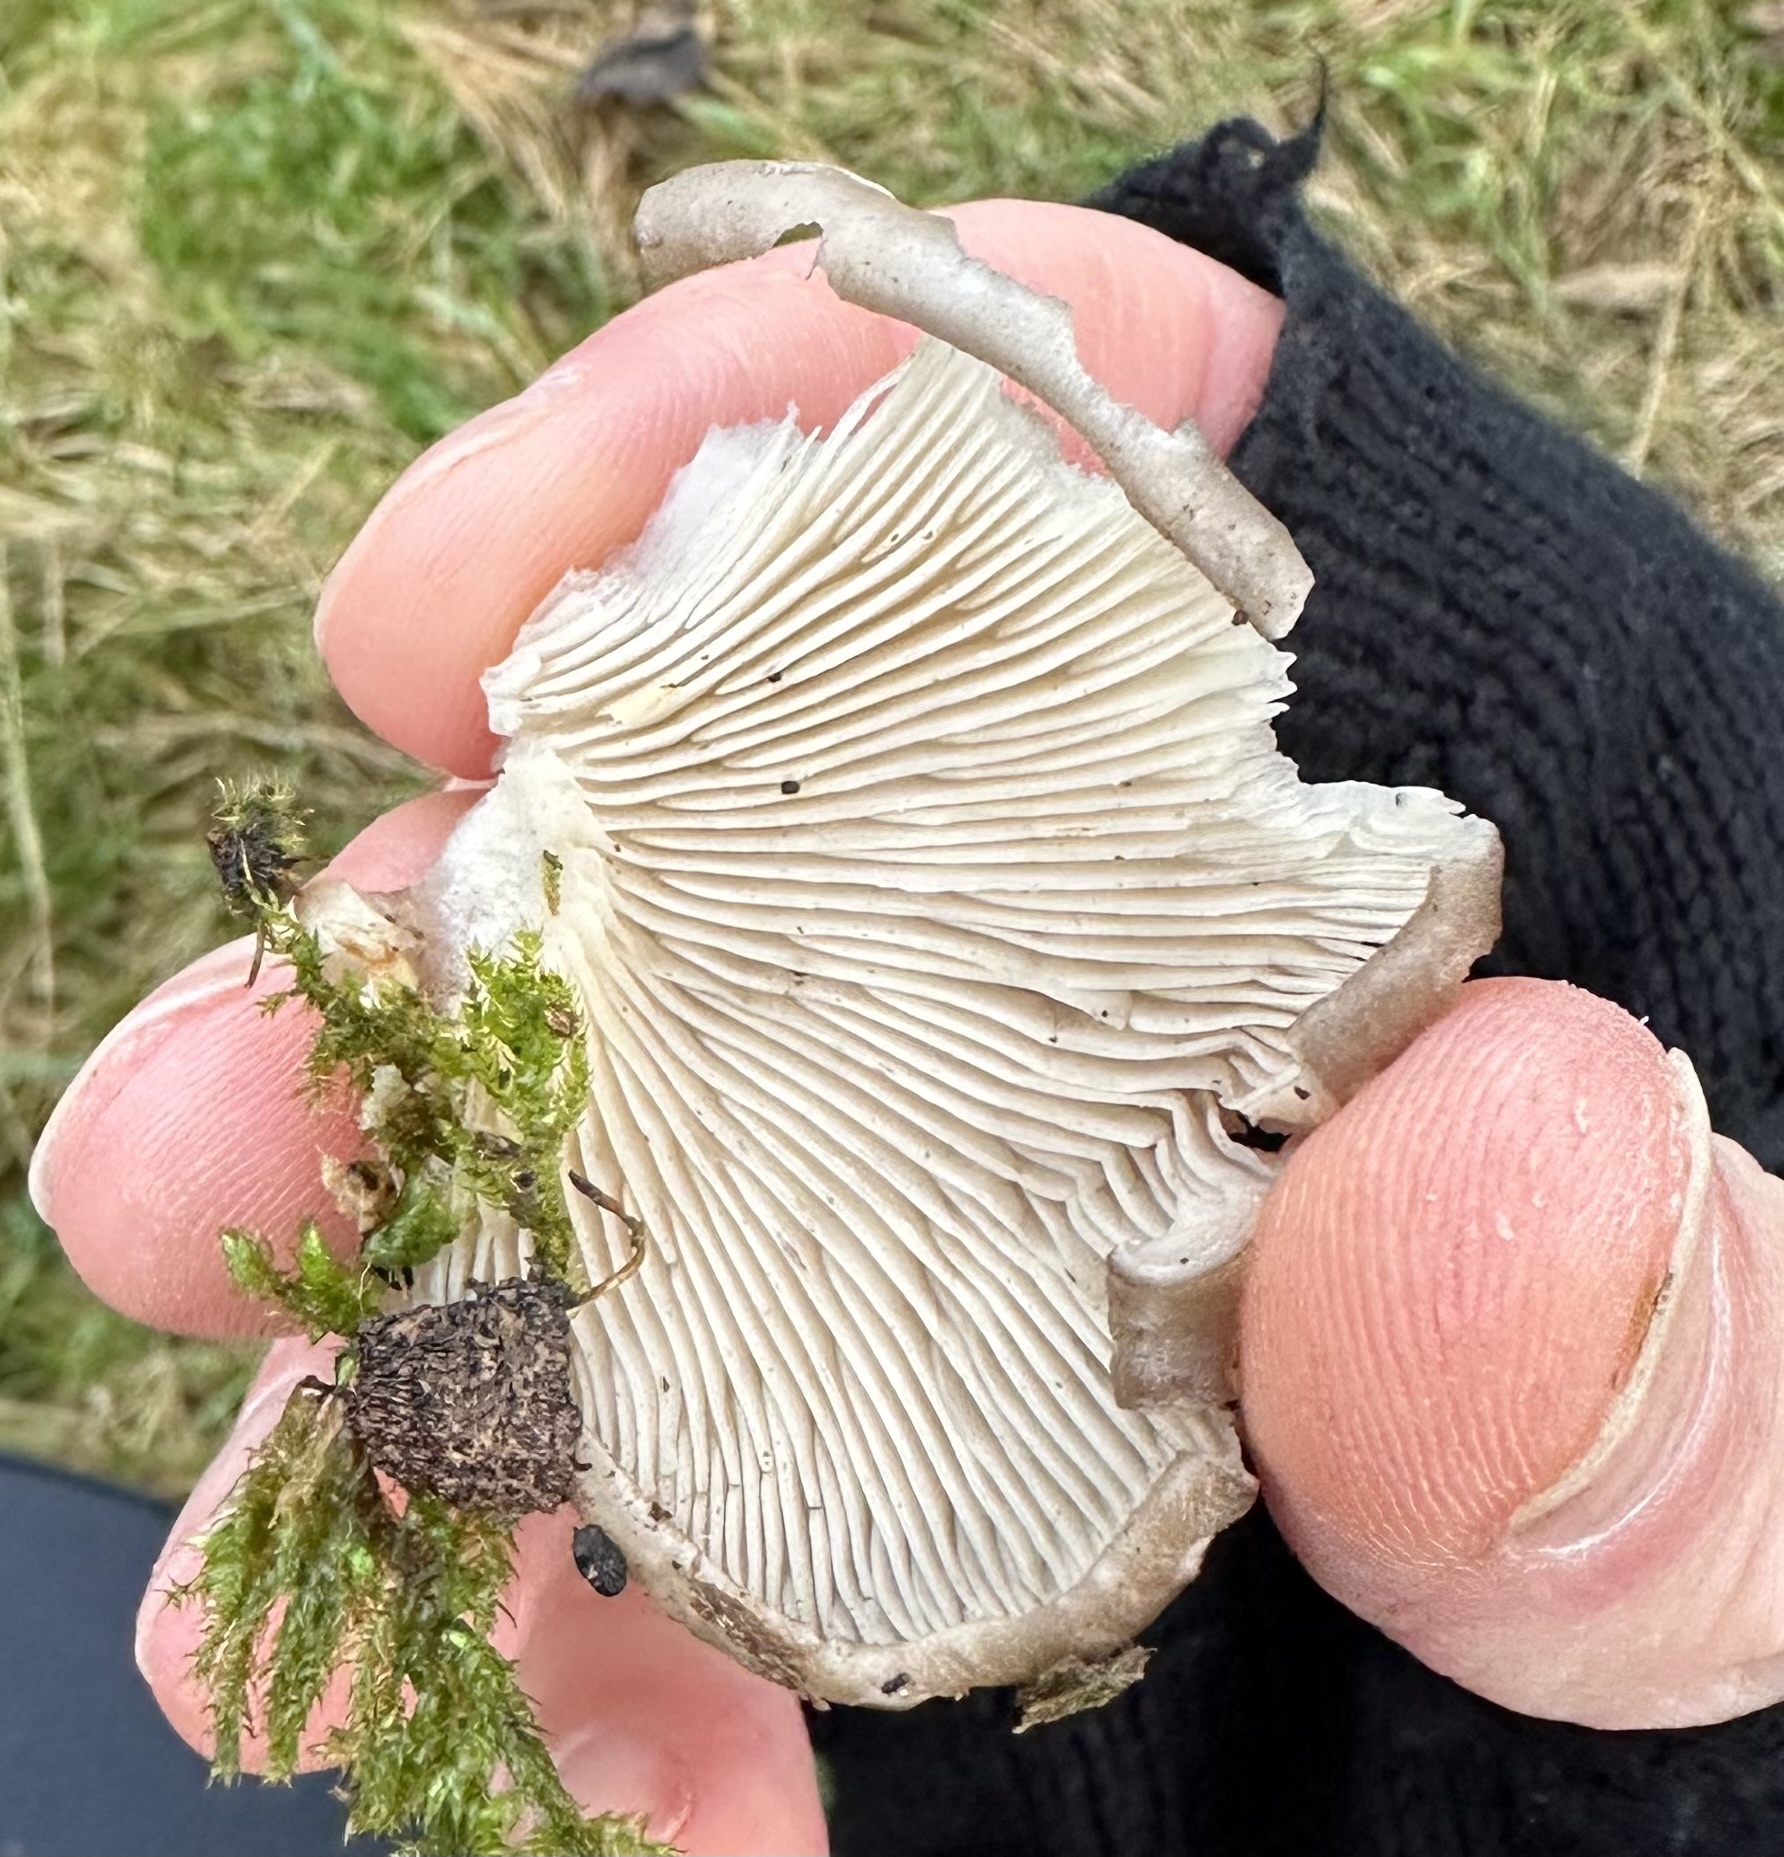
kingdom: Fungi
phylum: Basidiomycota
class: Agaricomycetes
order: Agaricales
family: Pleurotaceae
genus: Pleurotus
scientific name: Pleurotus ostreatus
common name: Oyster mushroom
